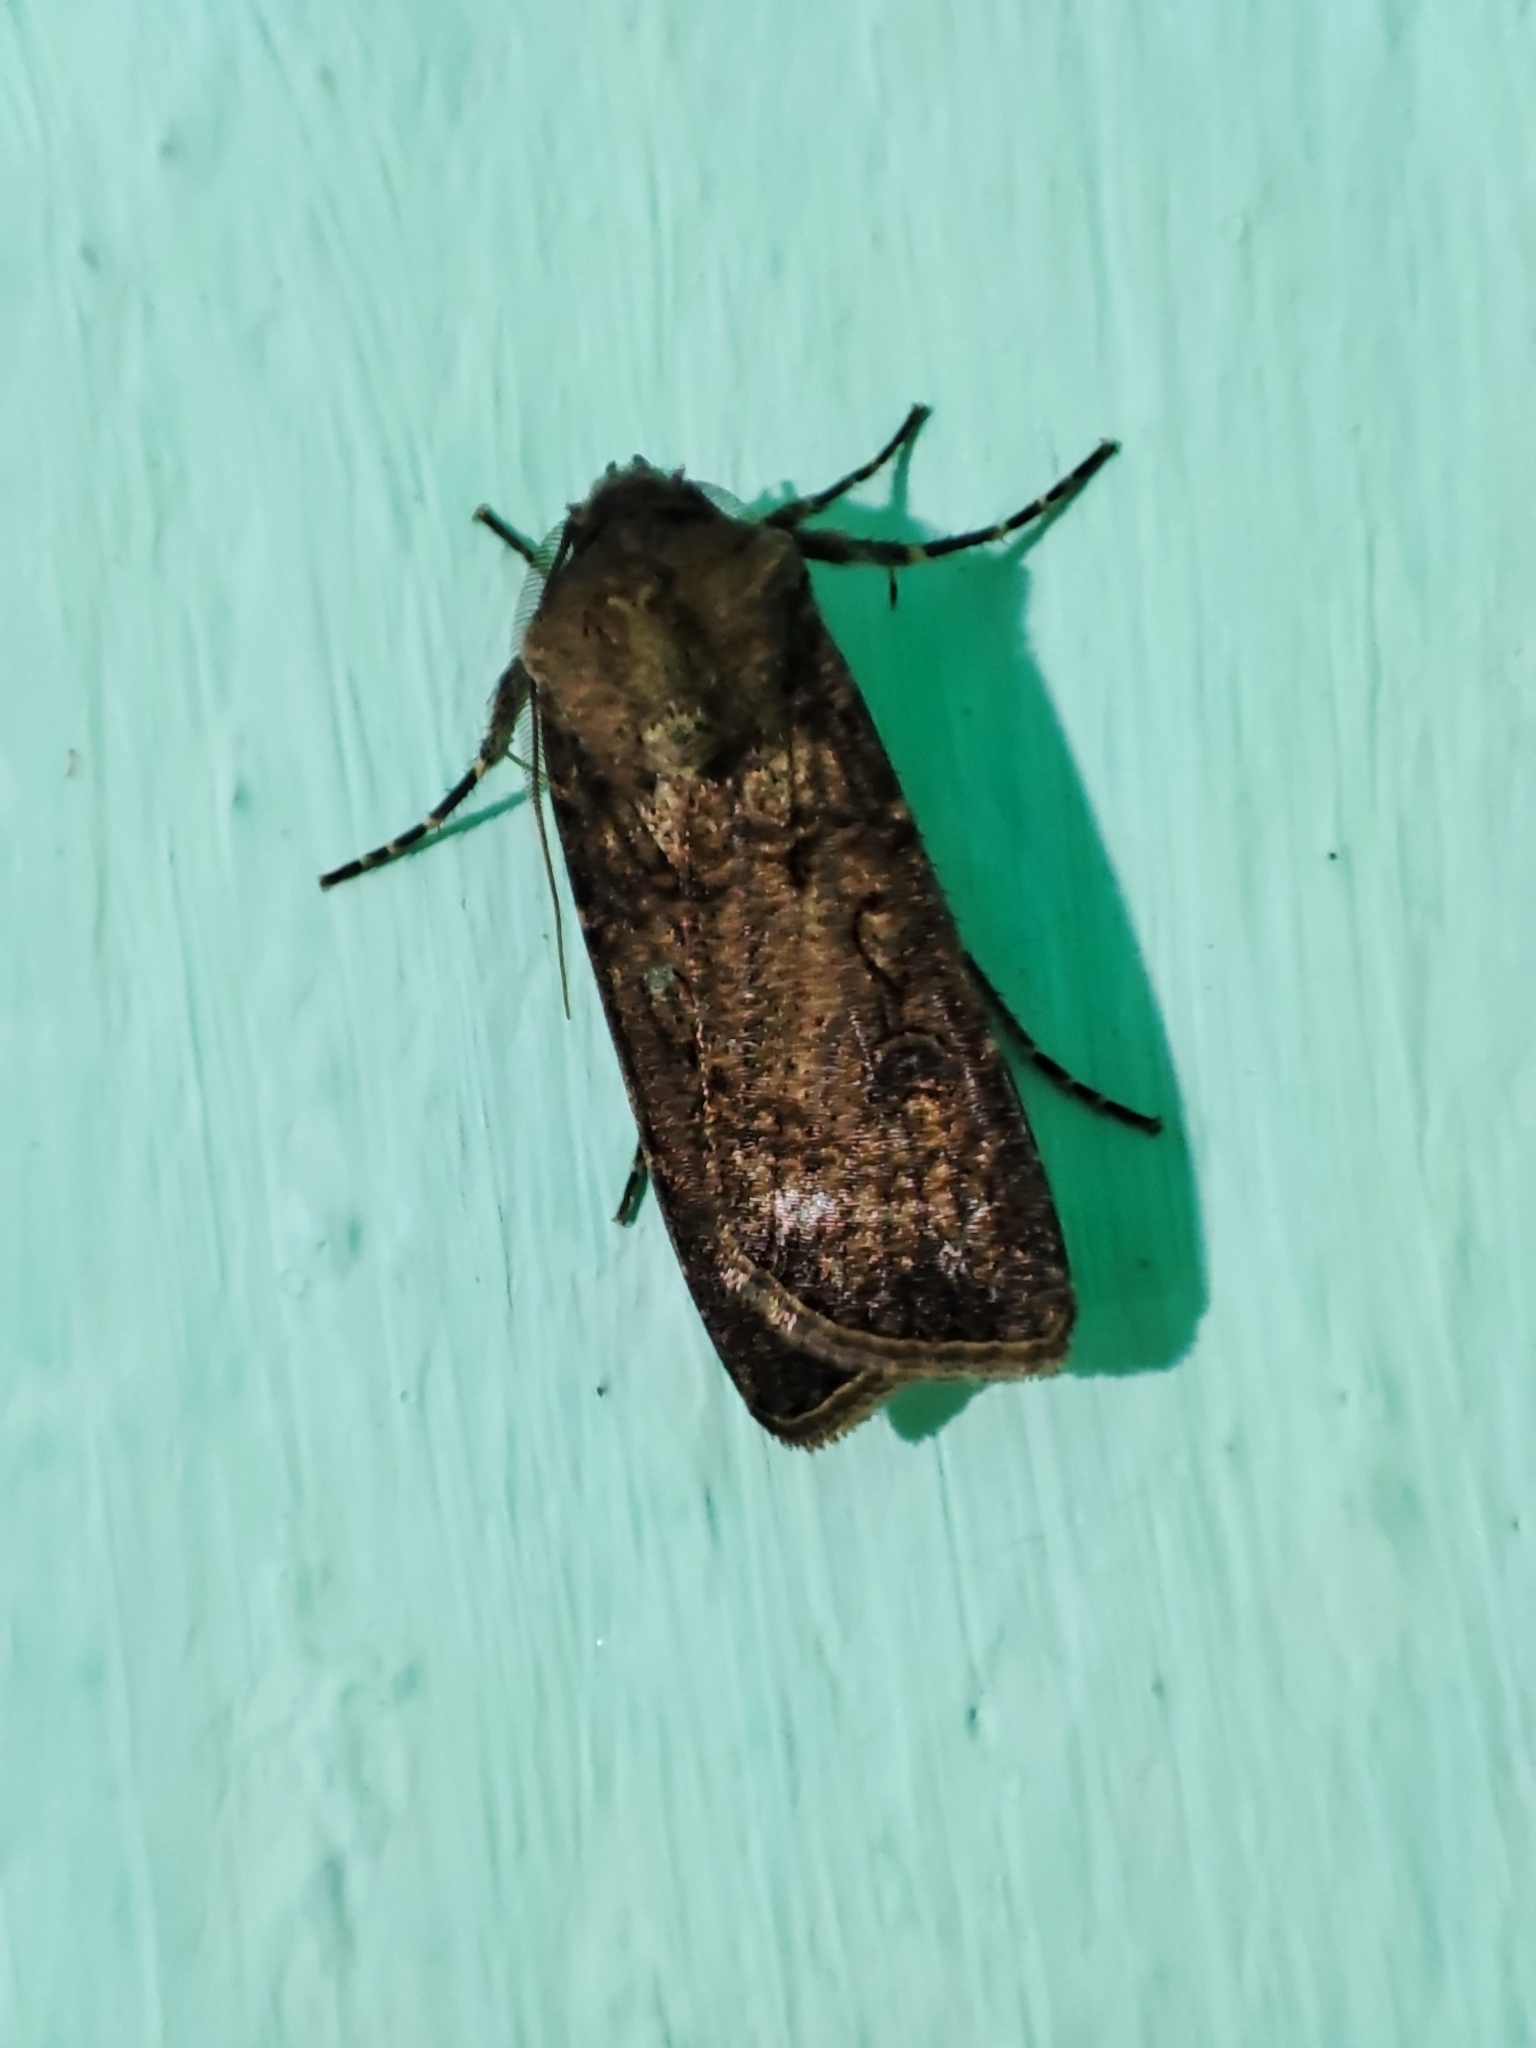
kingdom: Animalia
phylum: Arthropoda
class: Insecta
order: Lepidoptera
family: Noctuidae
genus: Agrotis
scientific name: Agrotis segetum
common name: Turnip moth
